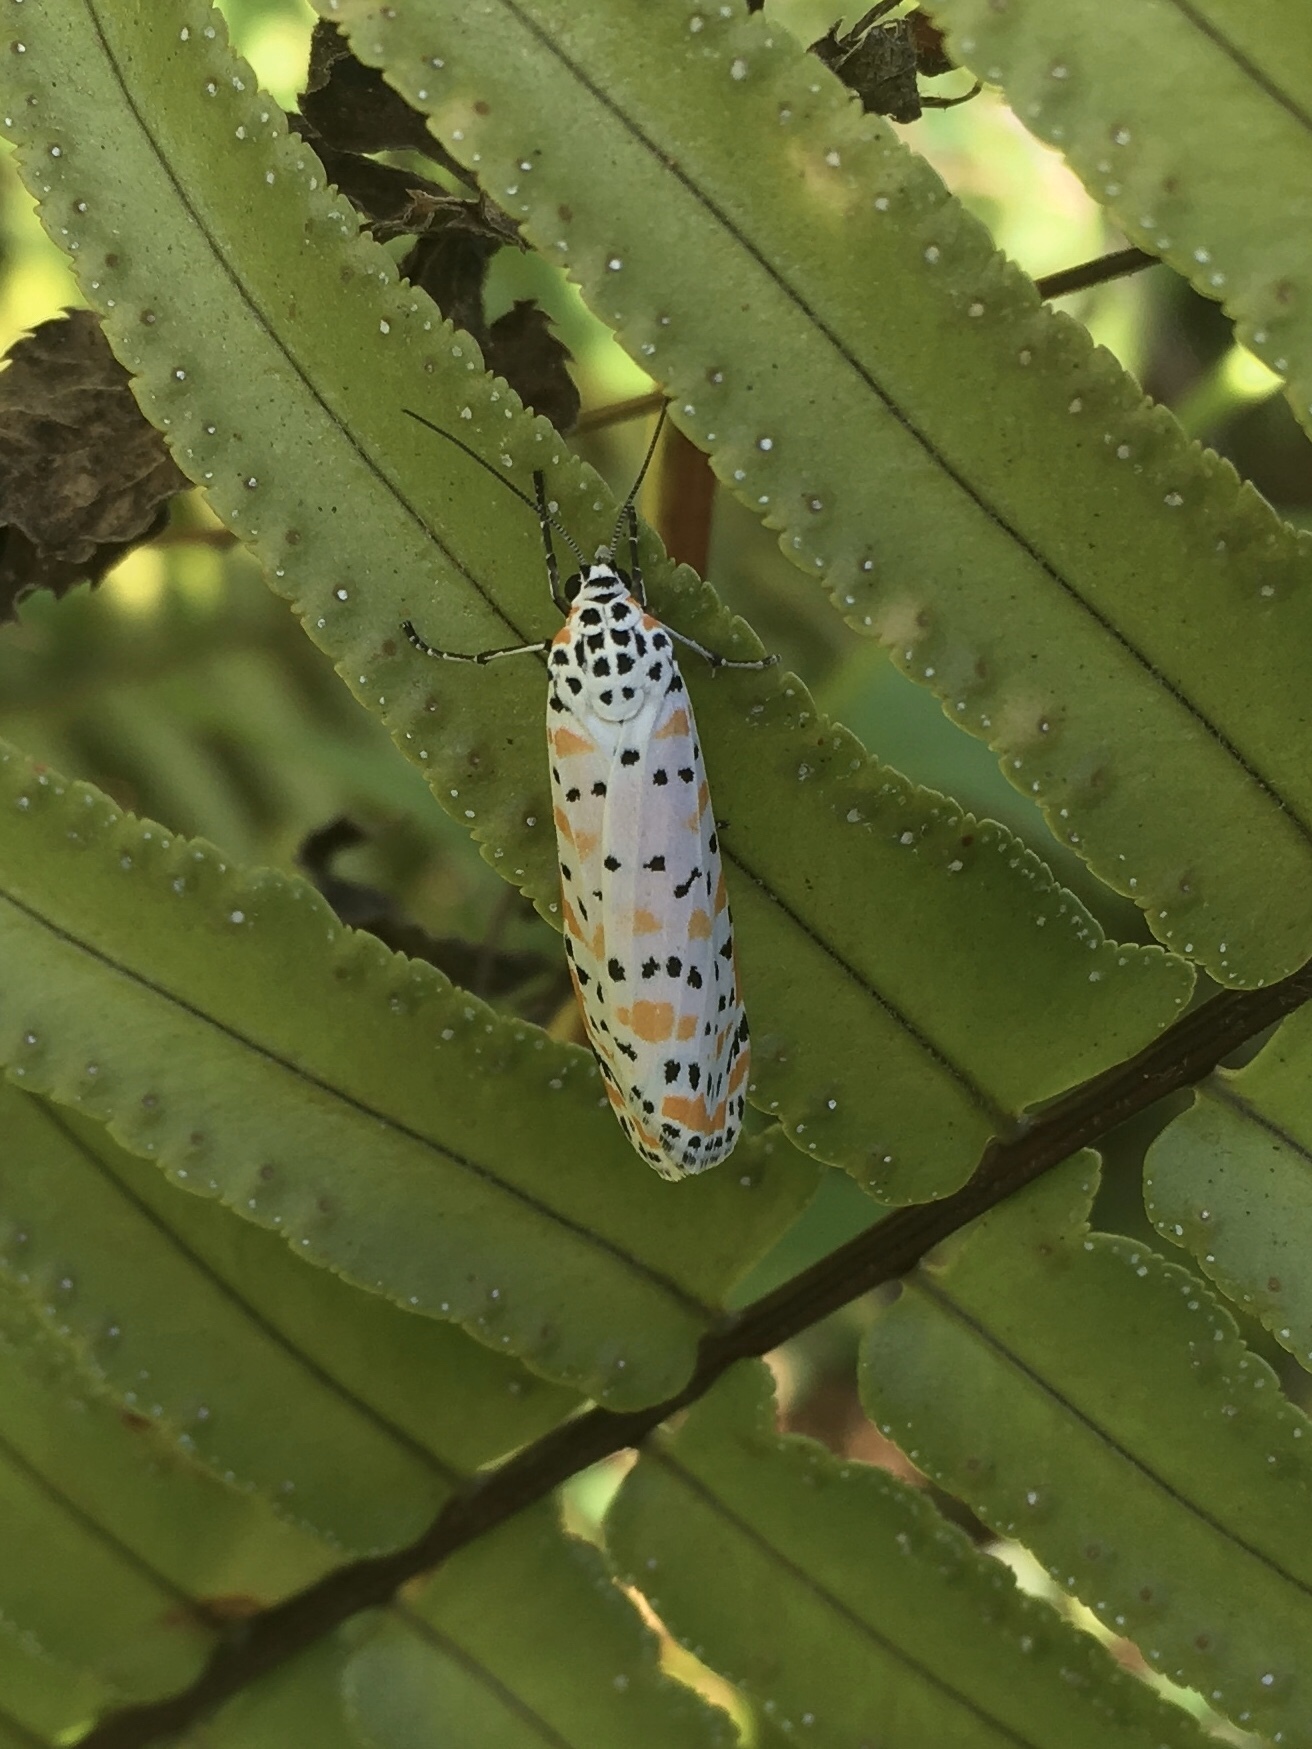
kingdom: Animalia
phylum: Arthropoda
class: Insecta
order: Lepidoptera
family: Erebidae
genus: Utetheisa
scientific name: Utetheisa ornatrix
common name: Beautiful utetheisa
